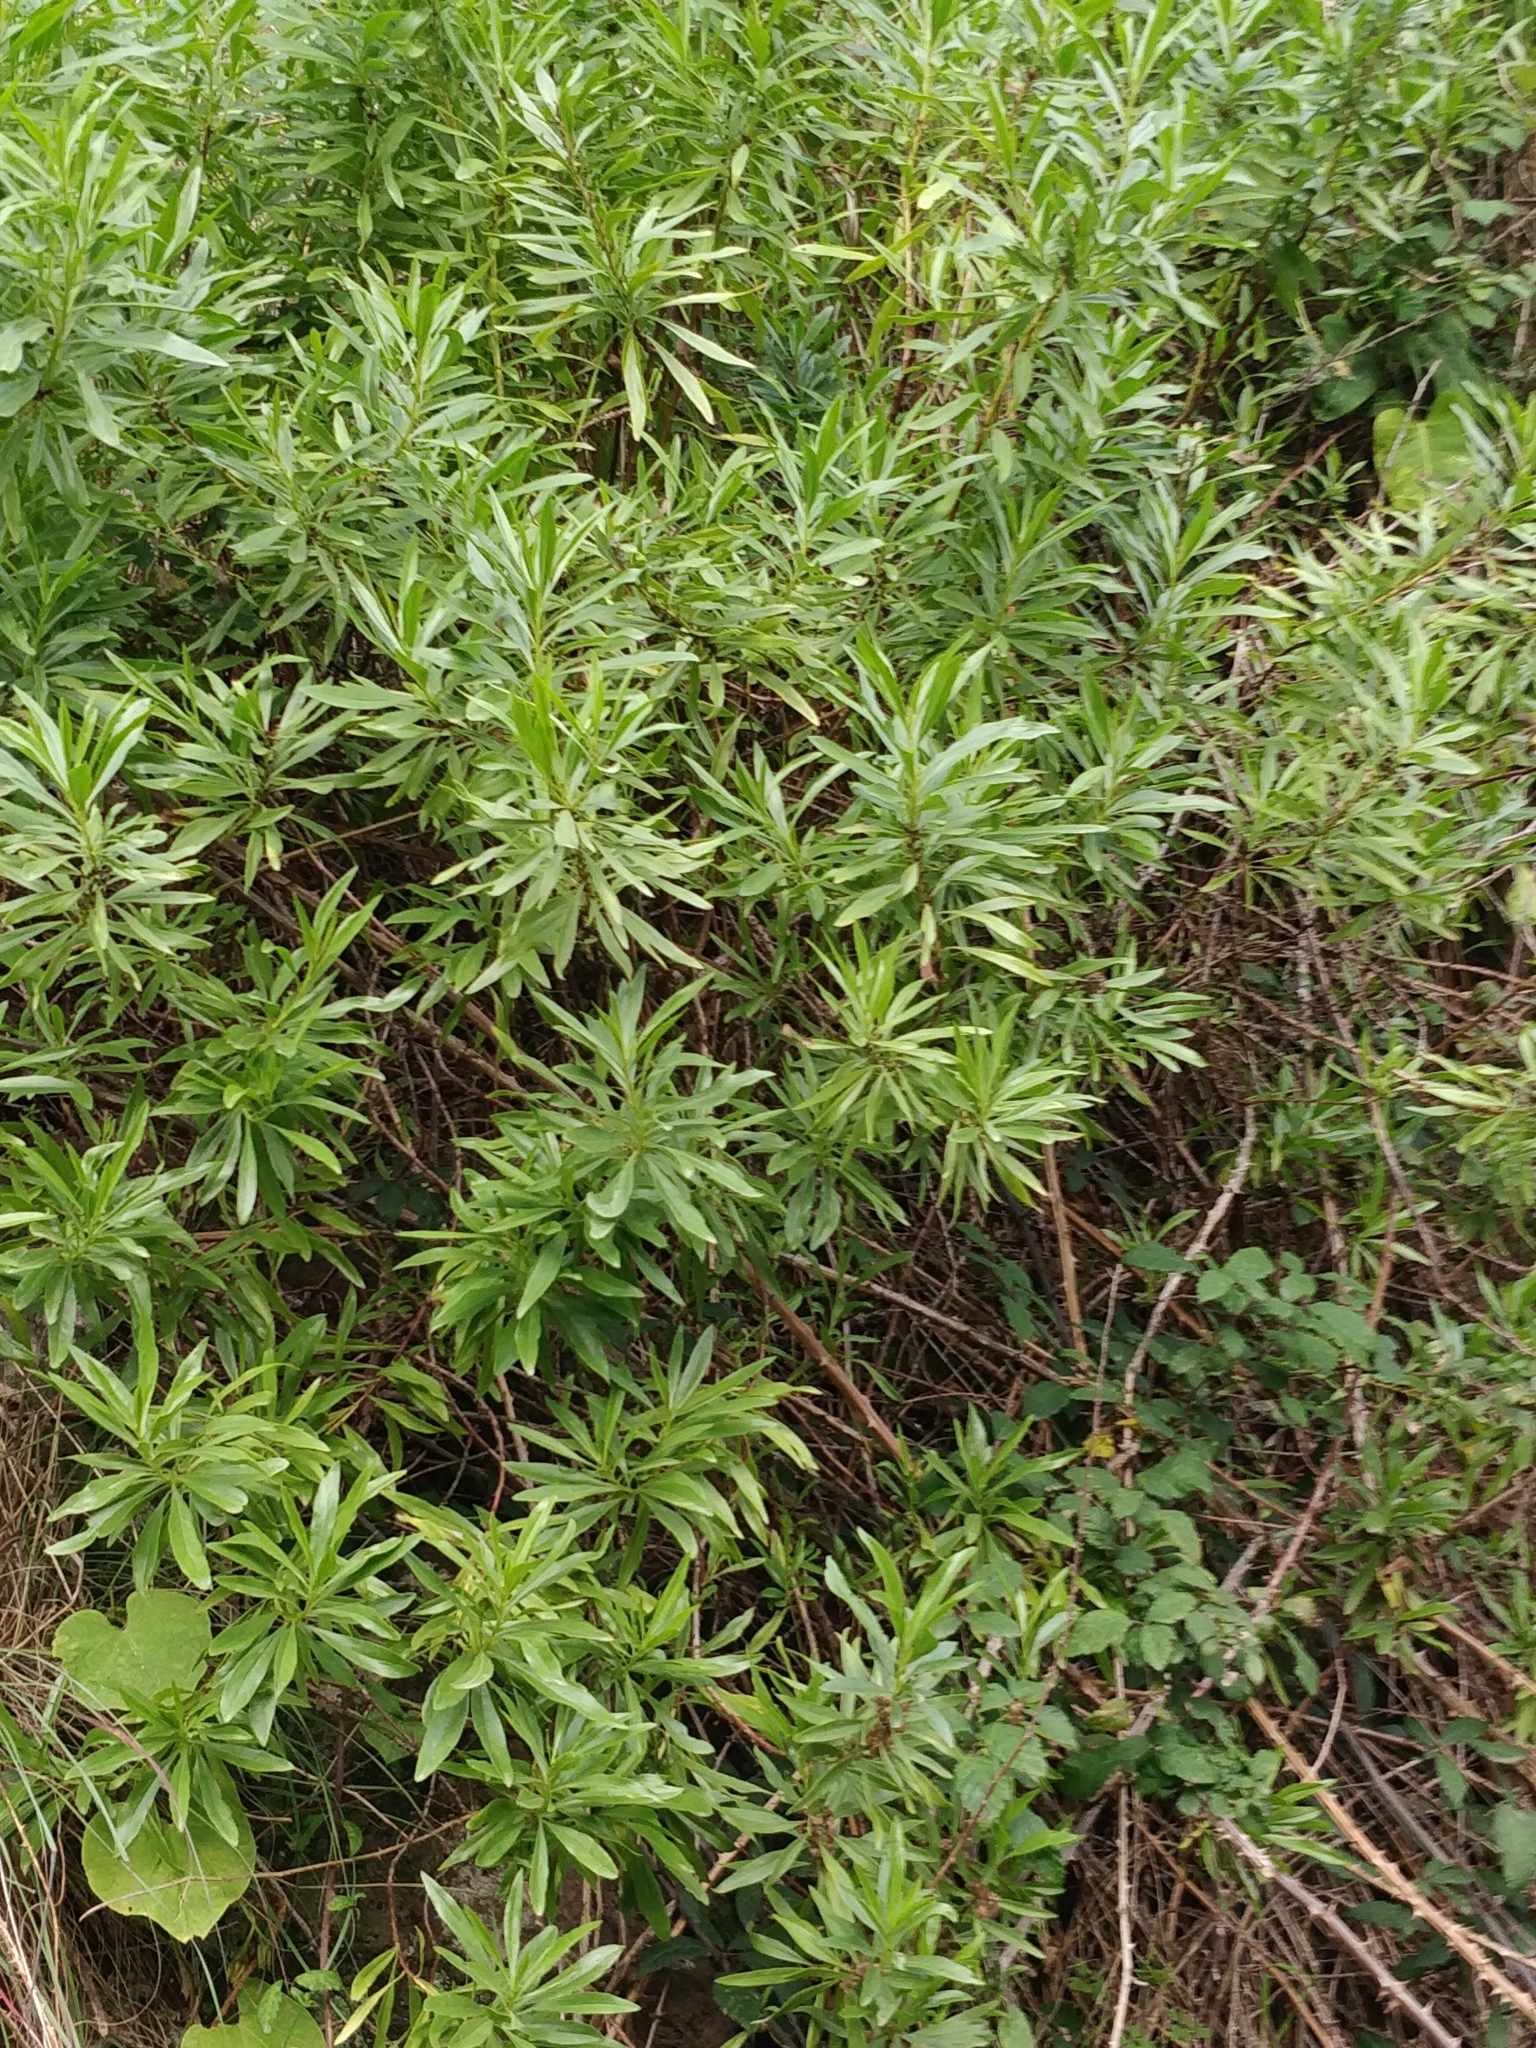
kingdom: Plantae
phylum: Tracheophyta
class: Magnoliopsida
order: Lamiales
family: Plantaginaceae
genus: Globularia
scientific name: Globularia salicina
